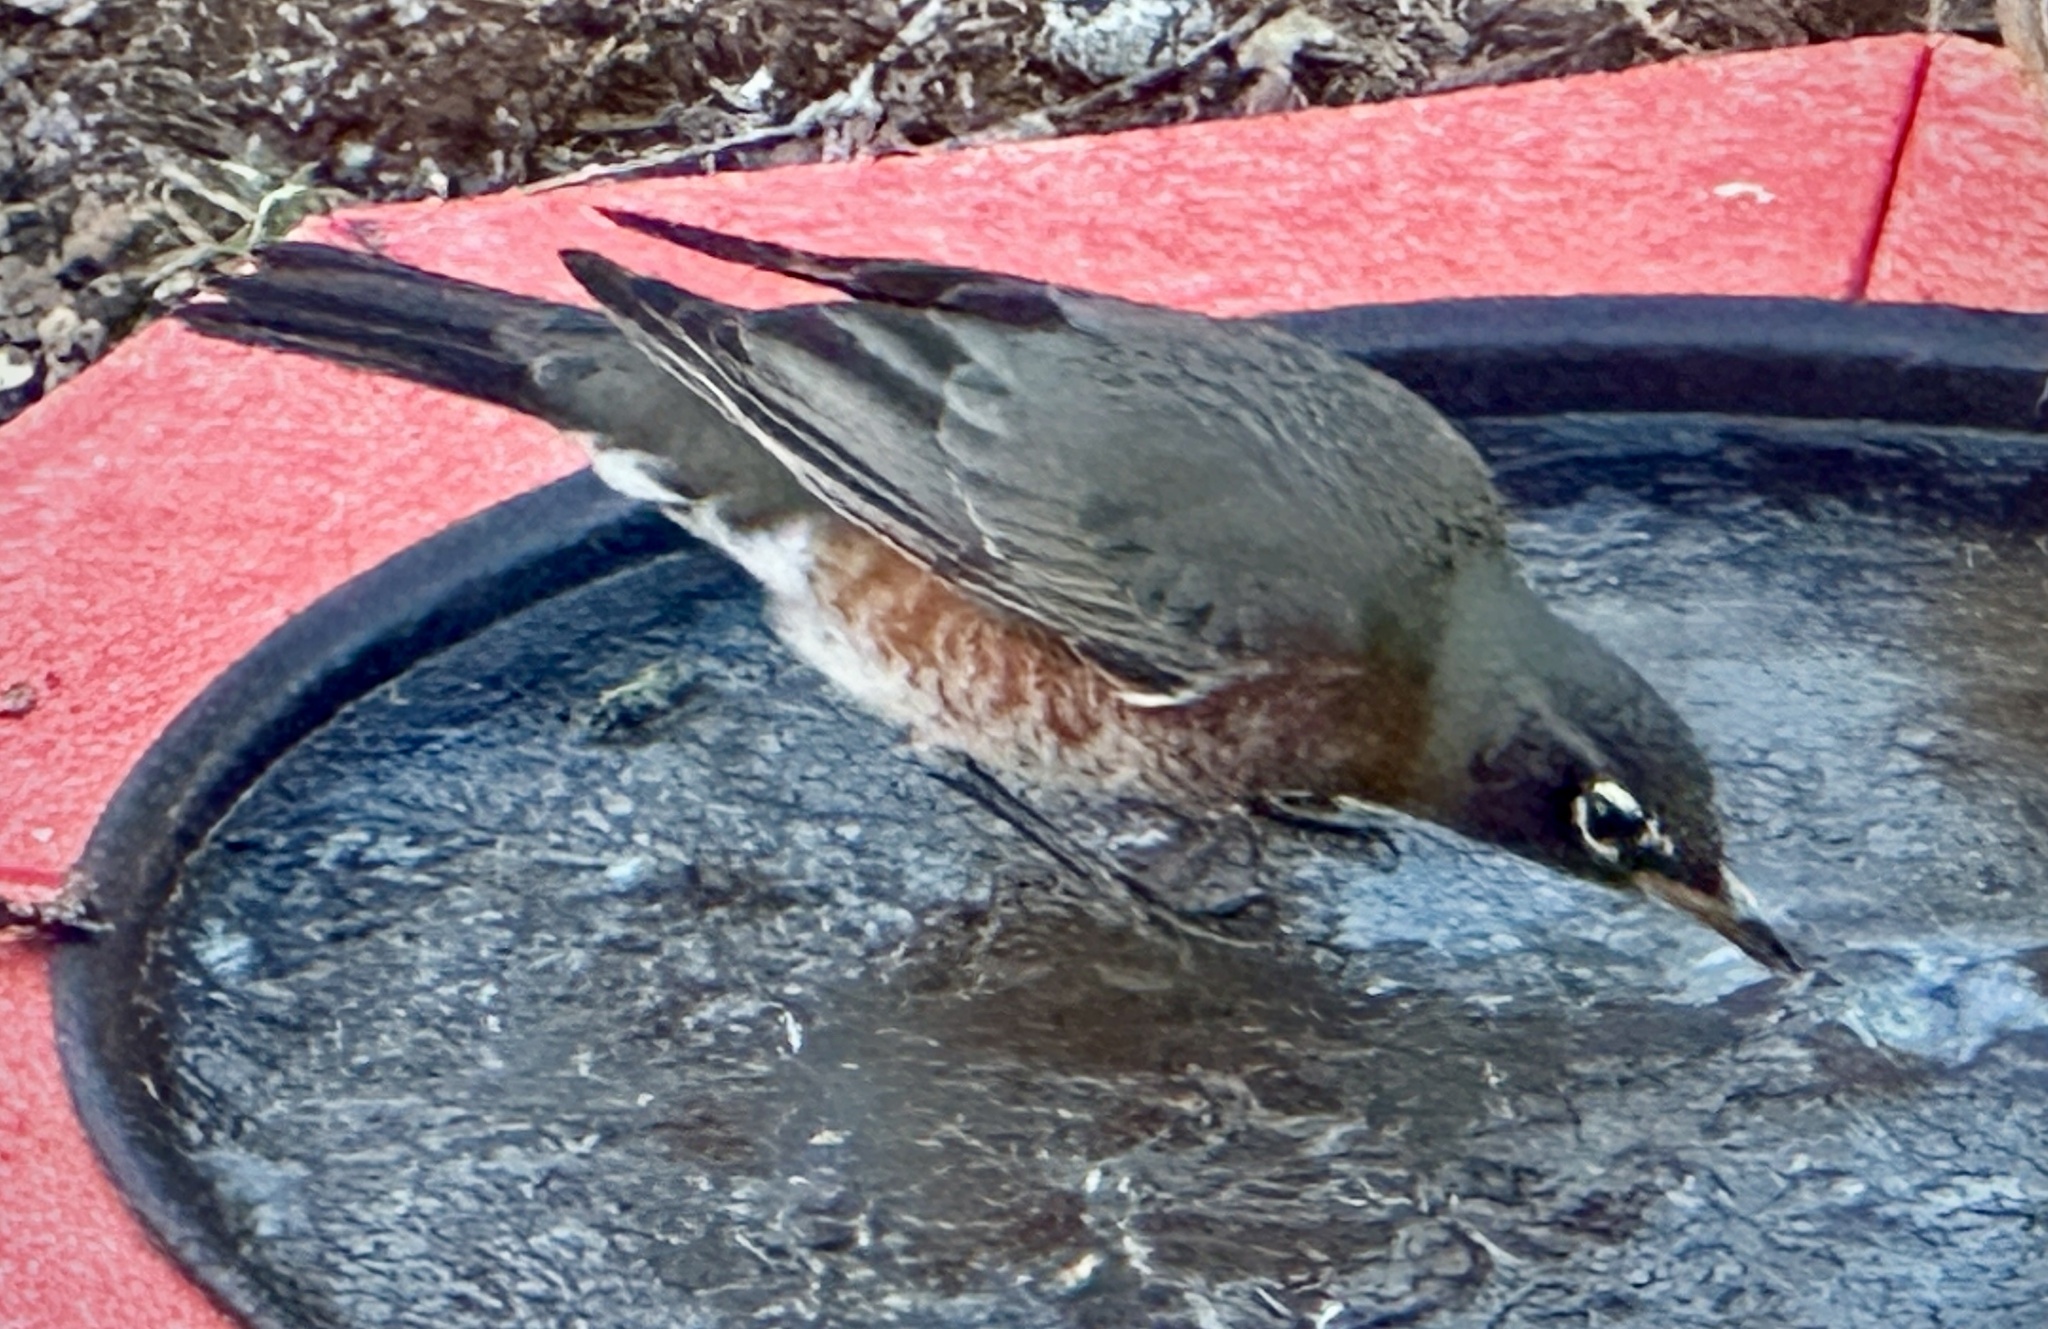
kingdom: Animalia
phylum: Chordata
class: Aves
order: Passeriformes
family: Turdidae
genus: Turdus
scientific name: Turdus migratorius
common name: American robin
